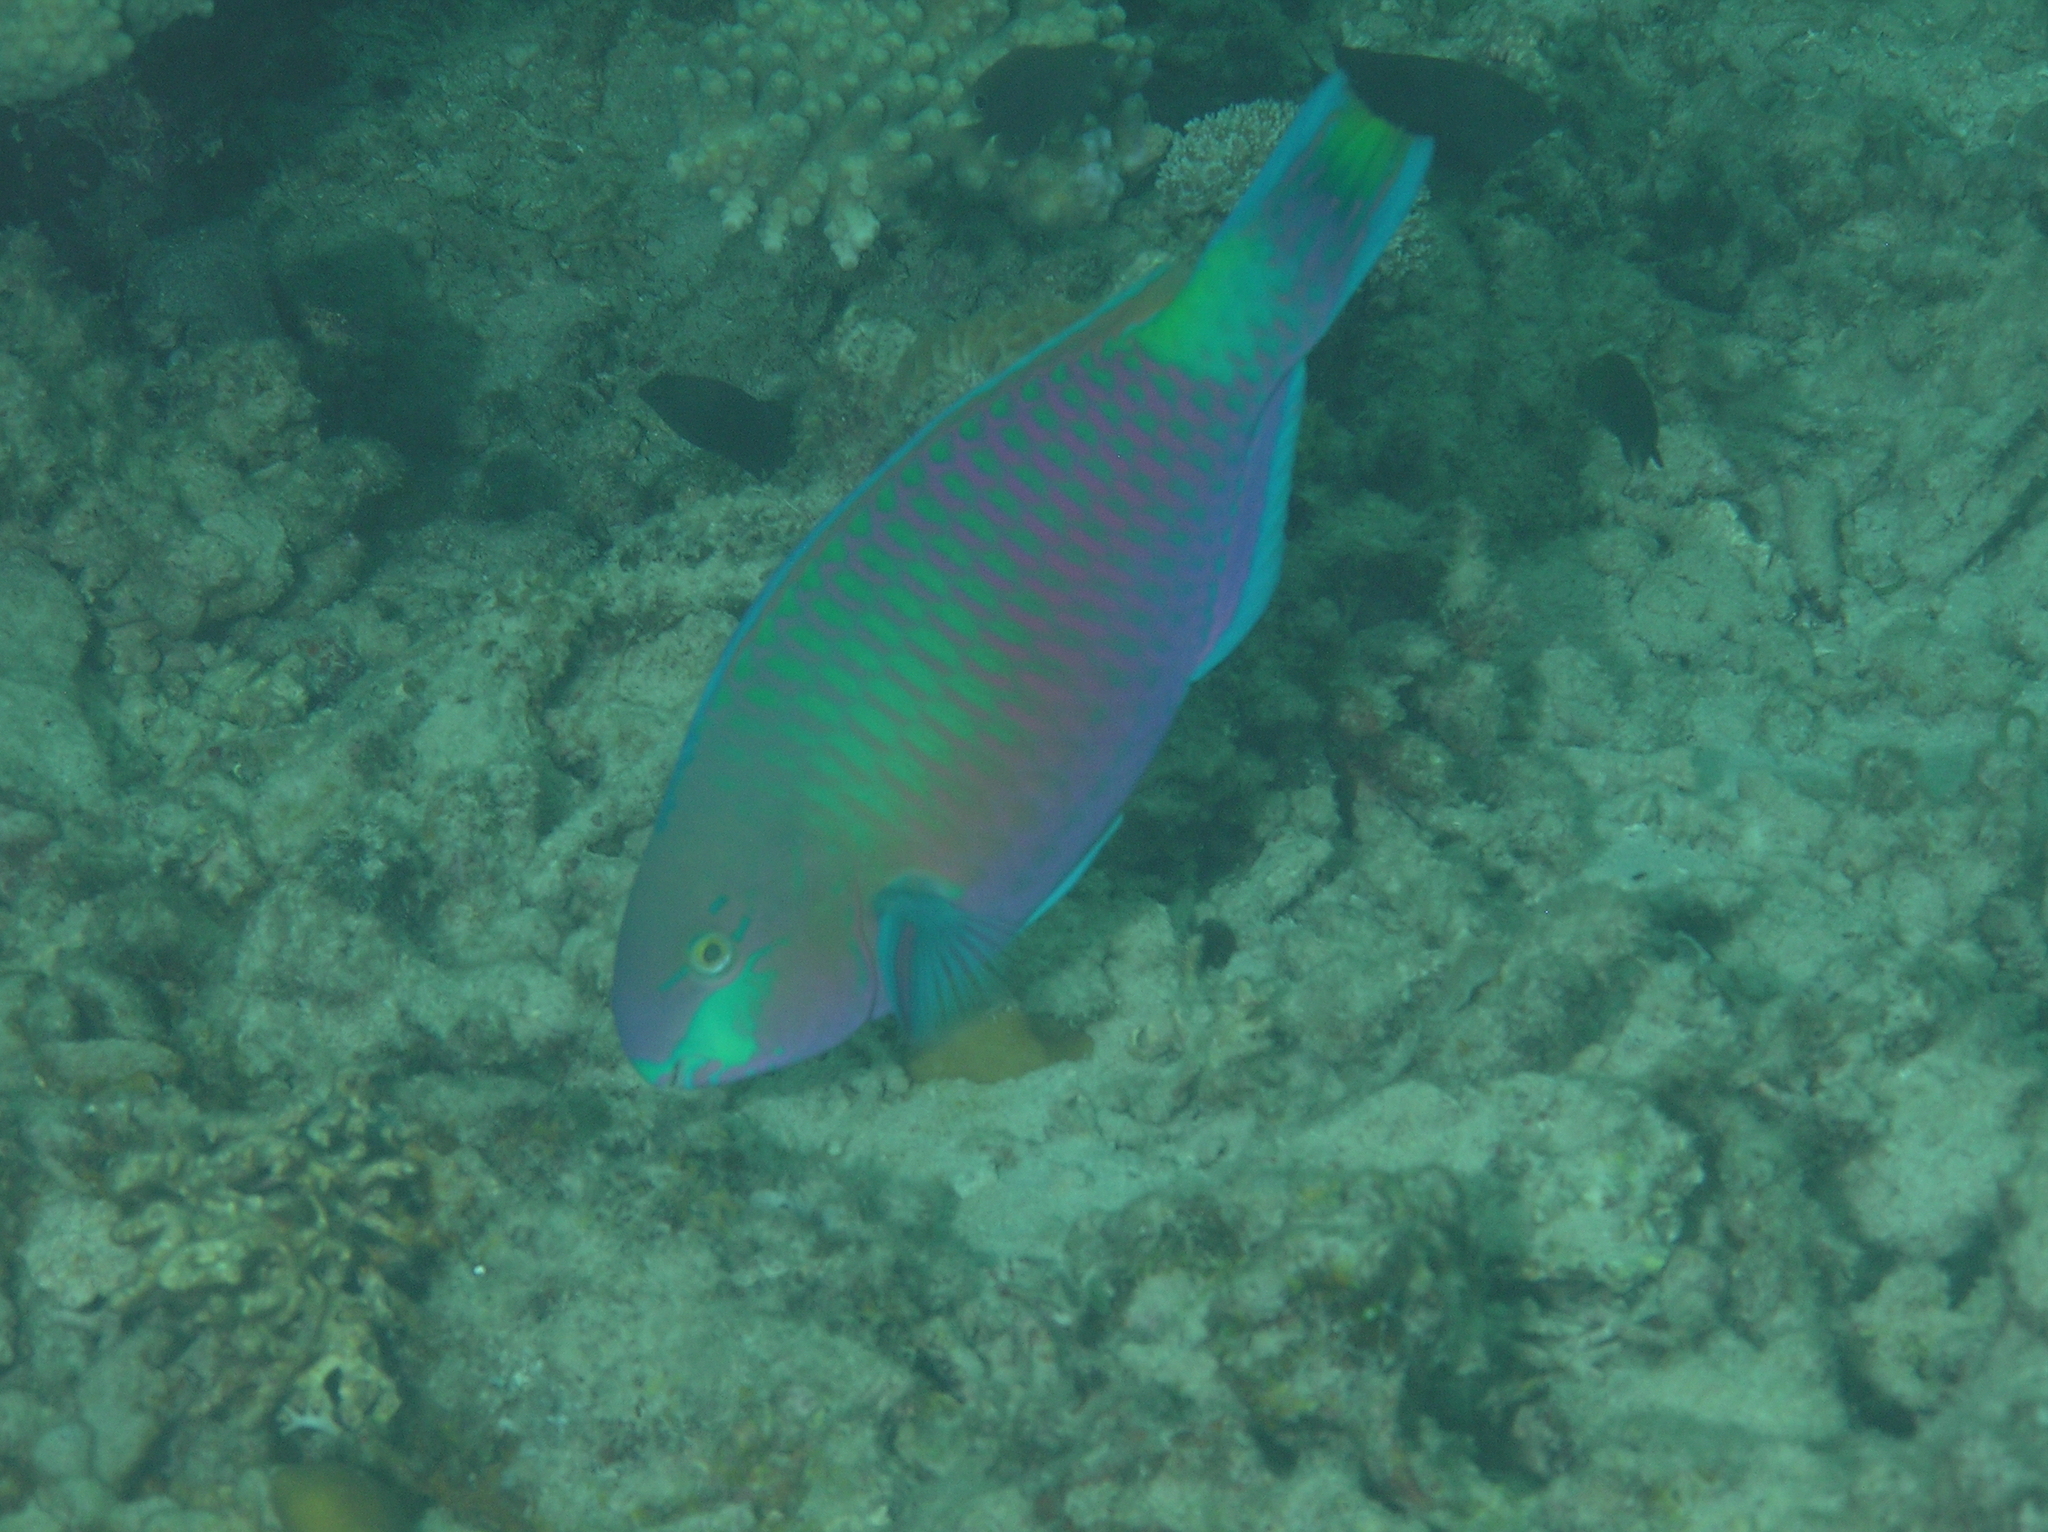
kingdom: Animalia
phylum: Chordata
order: Perciformes
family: Scaridae
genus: Scarus
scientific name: Scarus quoyi
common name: Quoy's parrotfish
